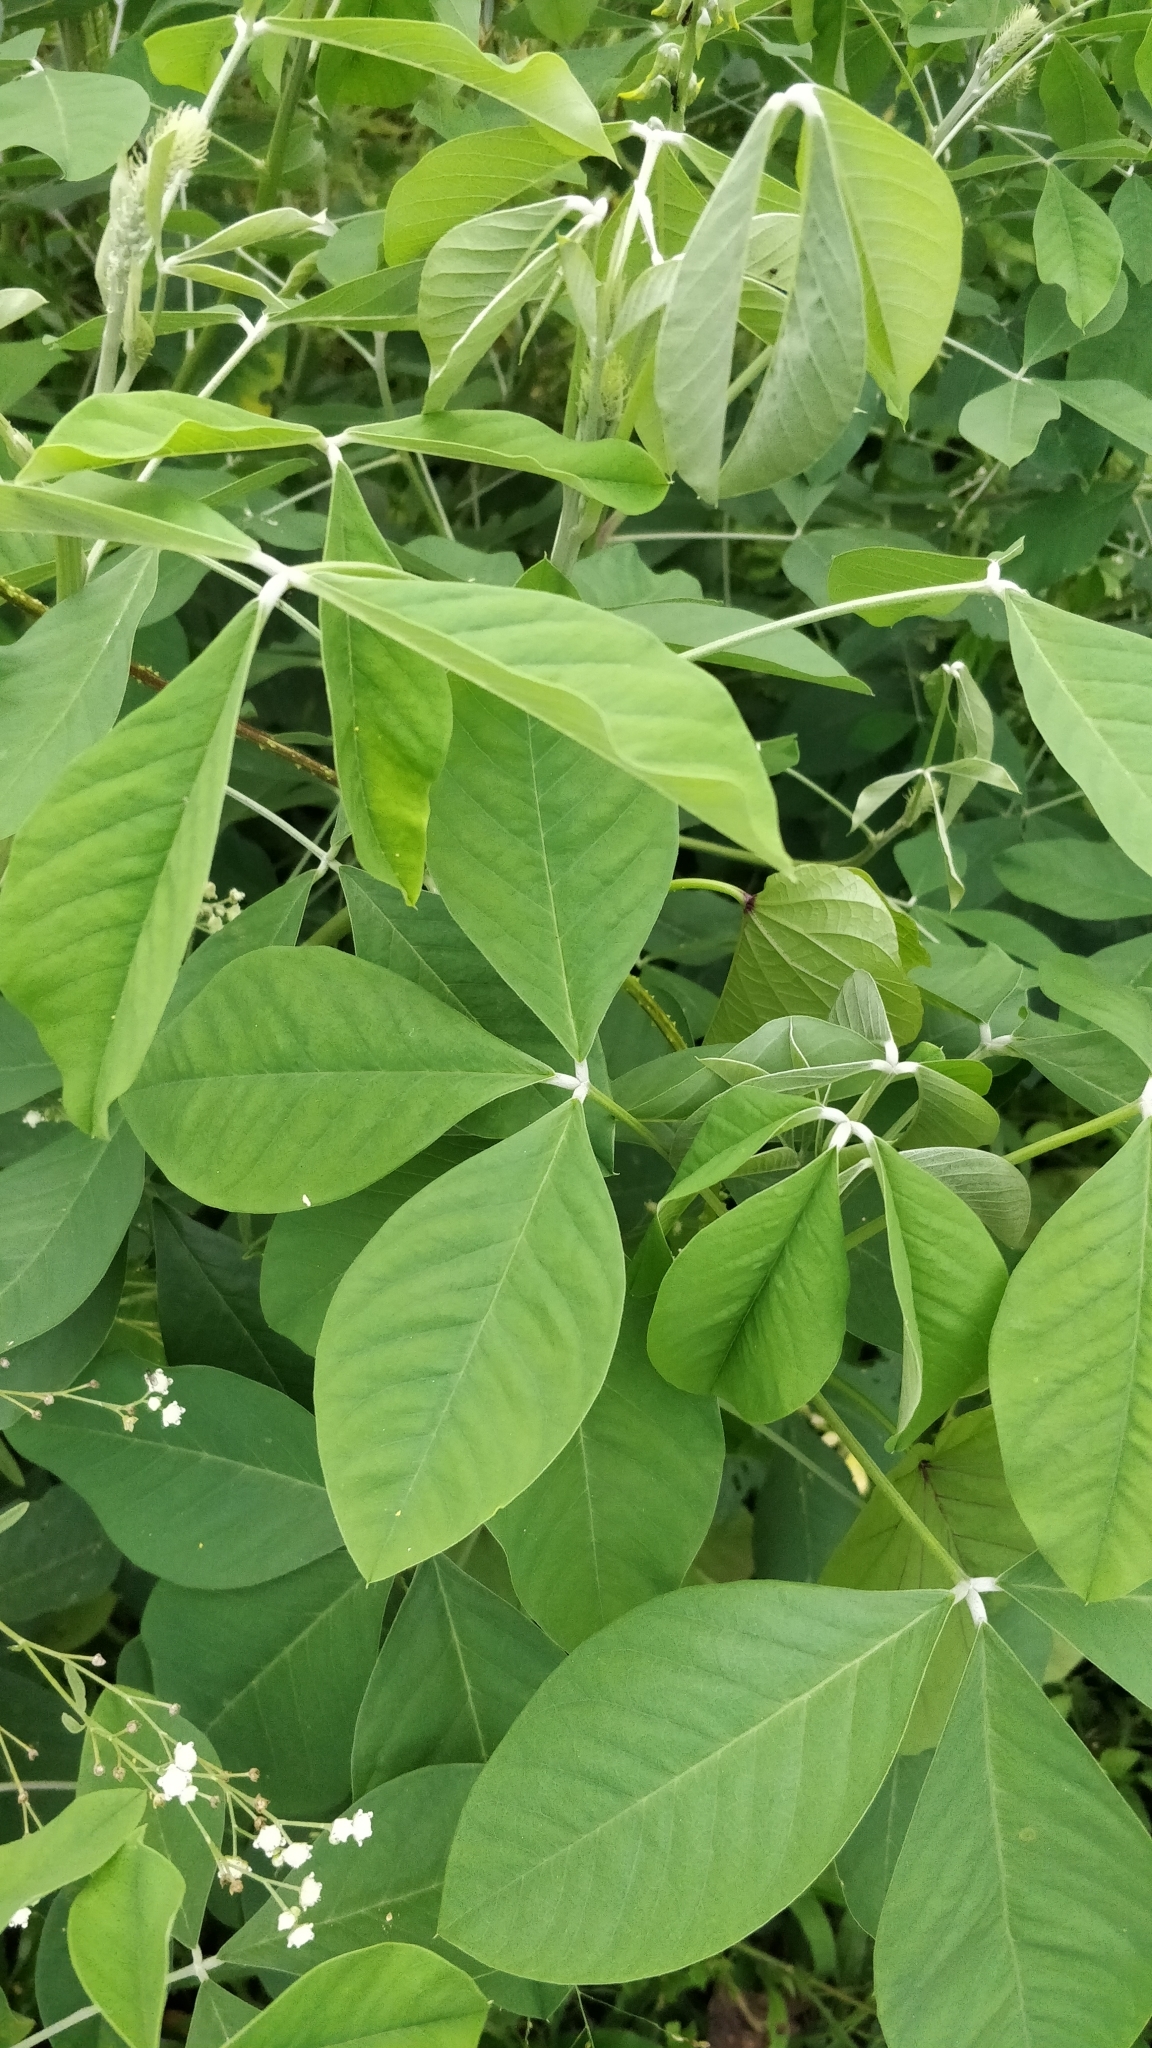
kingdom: Plantae
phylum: Tracheophyta
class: Magnoliopsida
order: Fabales
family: Fabaceae
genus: Crotalaria
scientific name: Crotalaria pallida
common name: Smooth rattlebox
